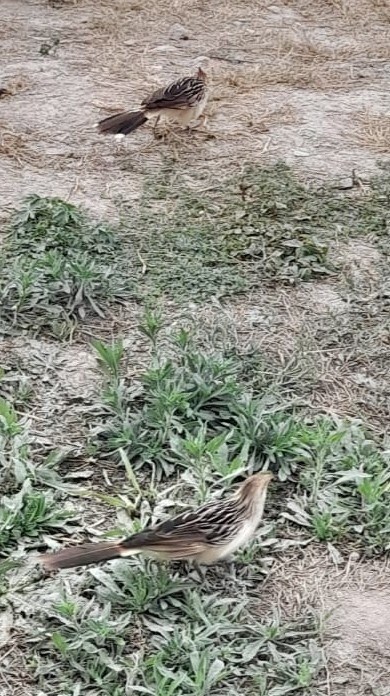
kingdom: Animalia
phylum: Chordata
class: Aves
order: Cuculiformes
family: Cuculidae
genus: Guira
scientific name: Guira guira
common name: Guira cuckoo
